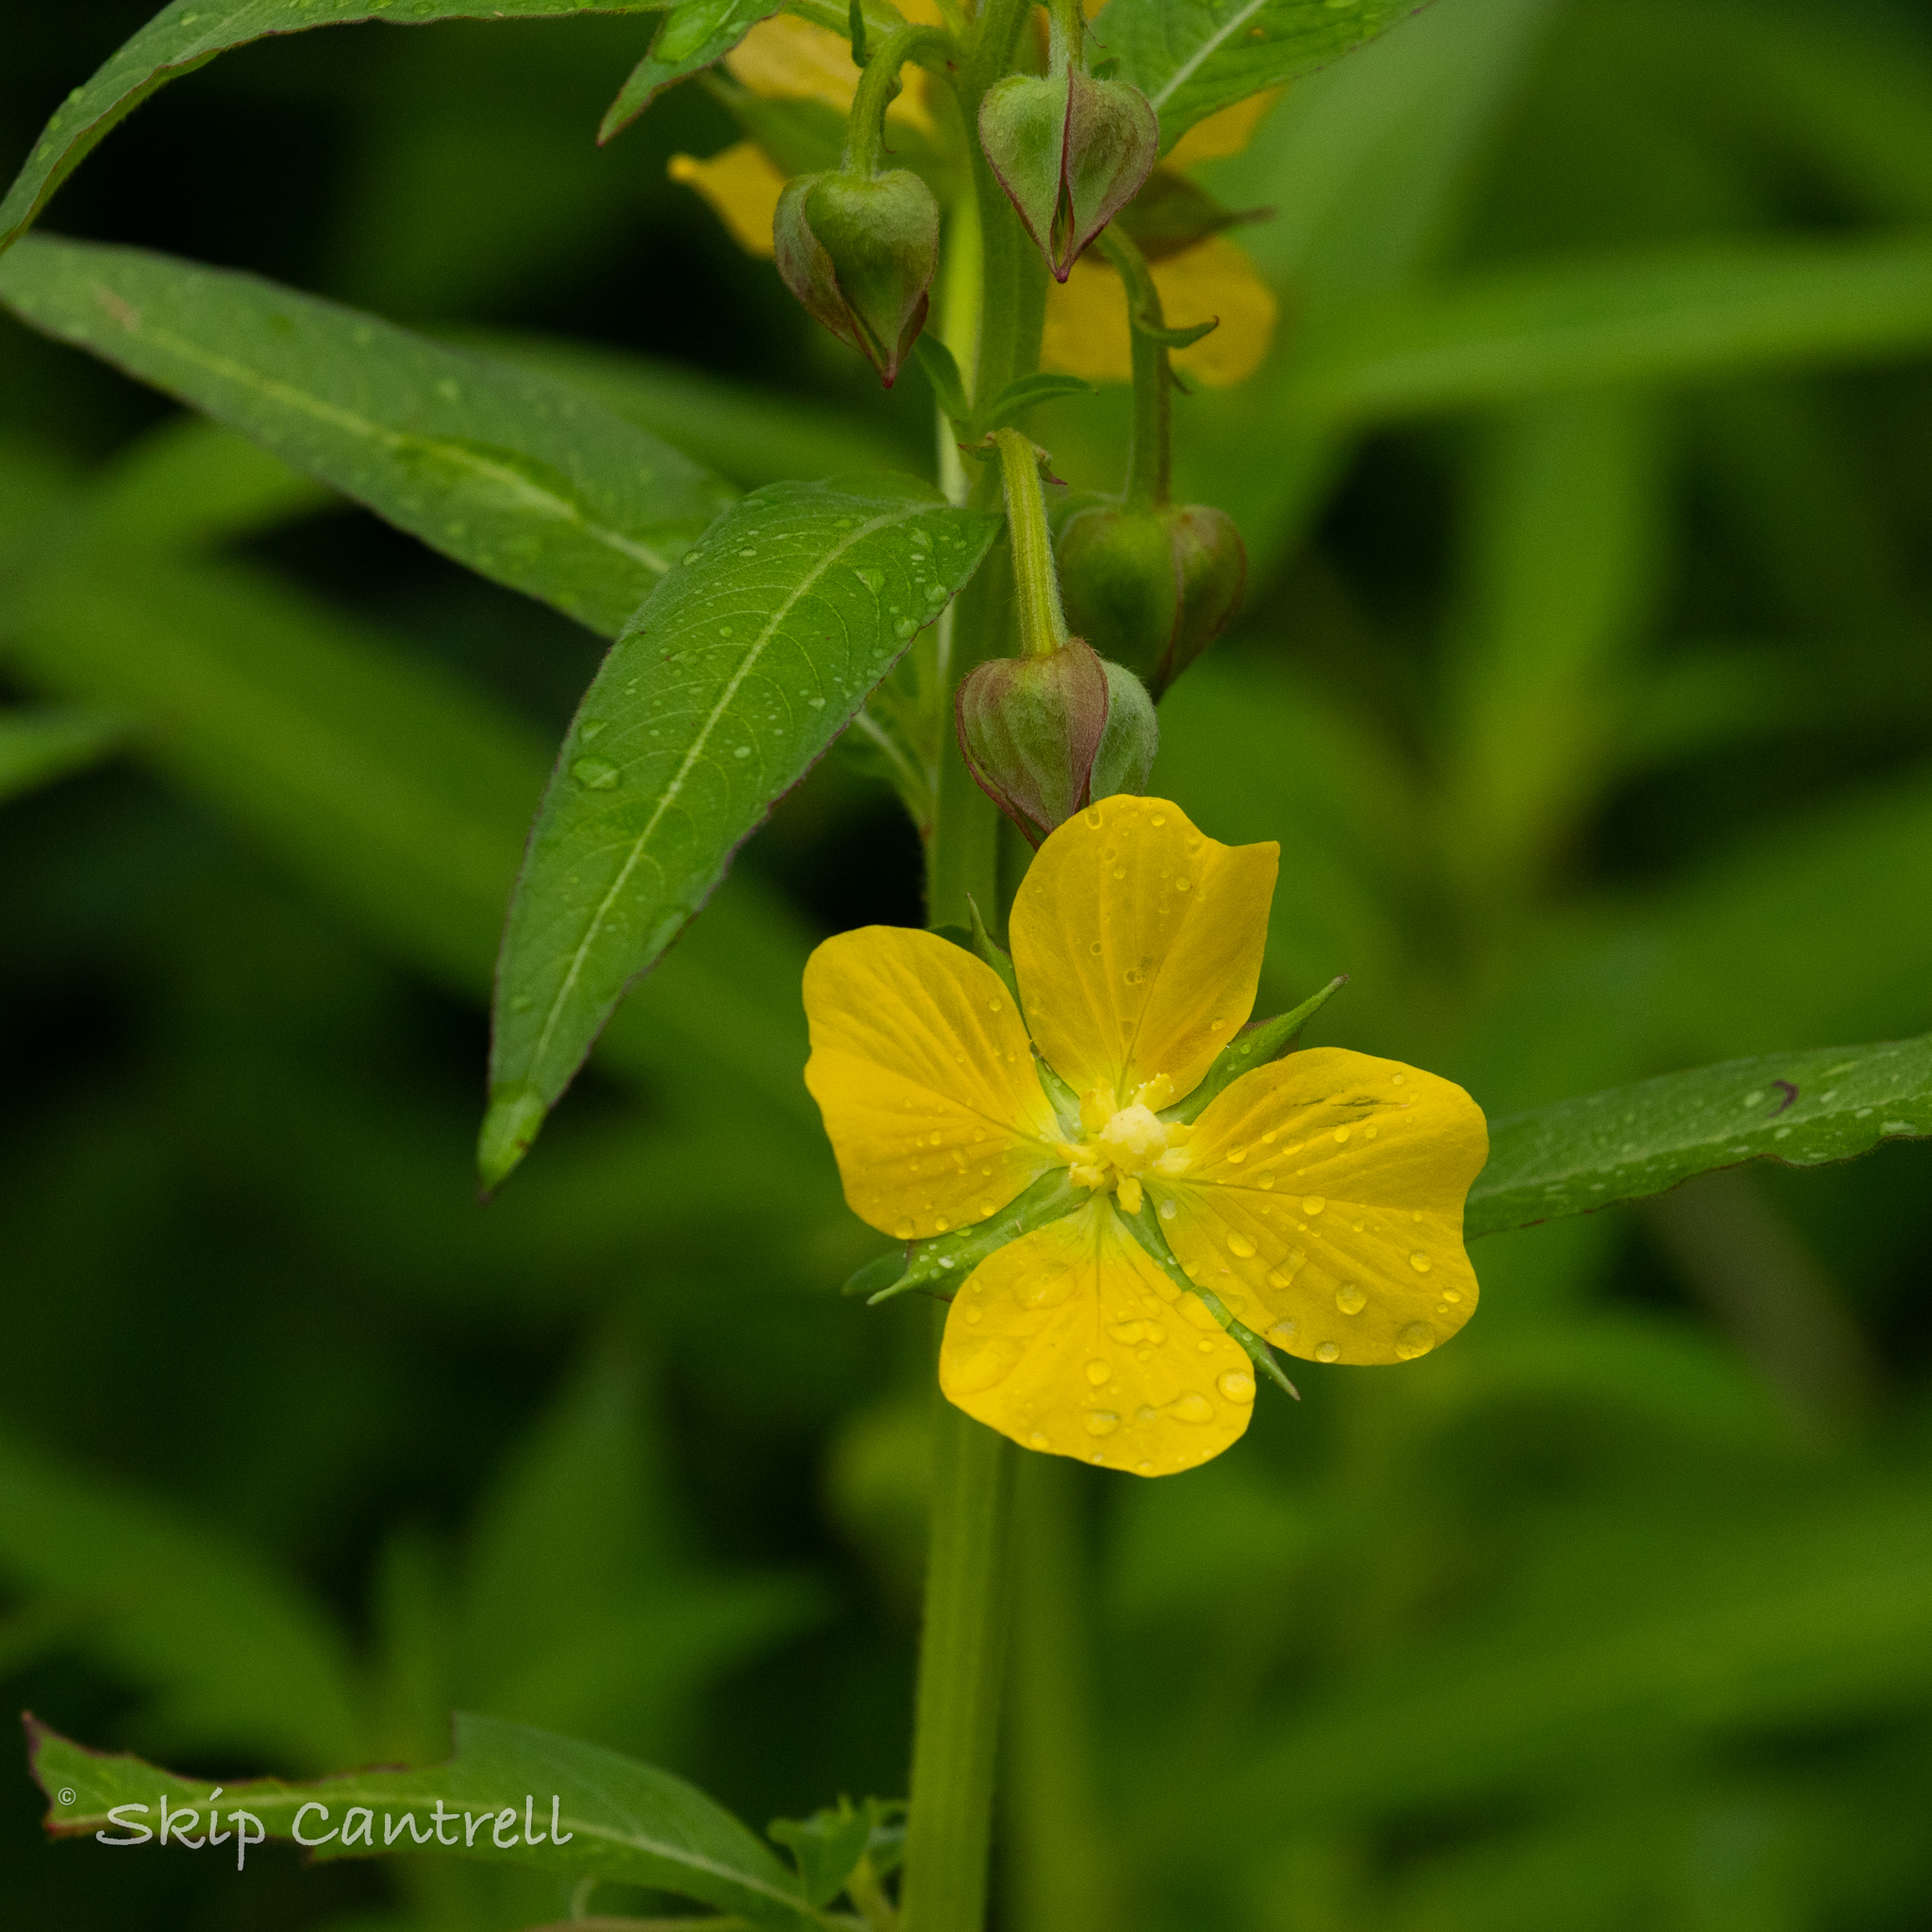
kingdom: Plantae
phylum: Tracheophyta
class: Magnoliopsida
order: Myrtales
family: Onagraceae
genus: Ludwigia
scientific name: Ludwigia octovalvis
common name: Water-primrose
